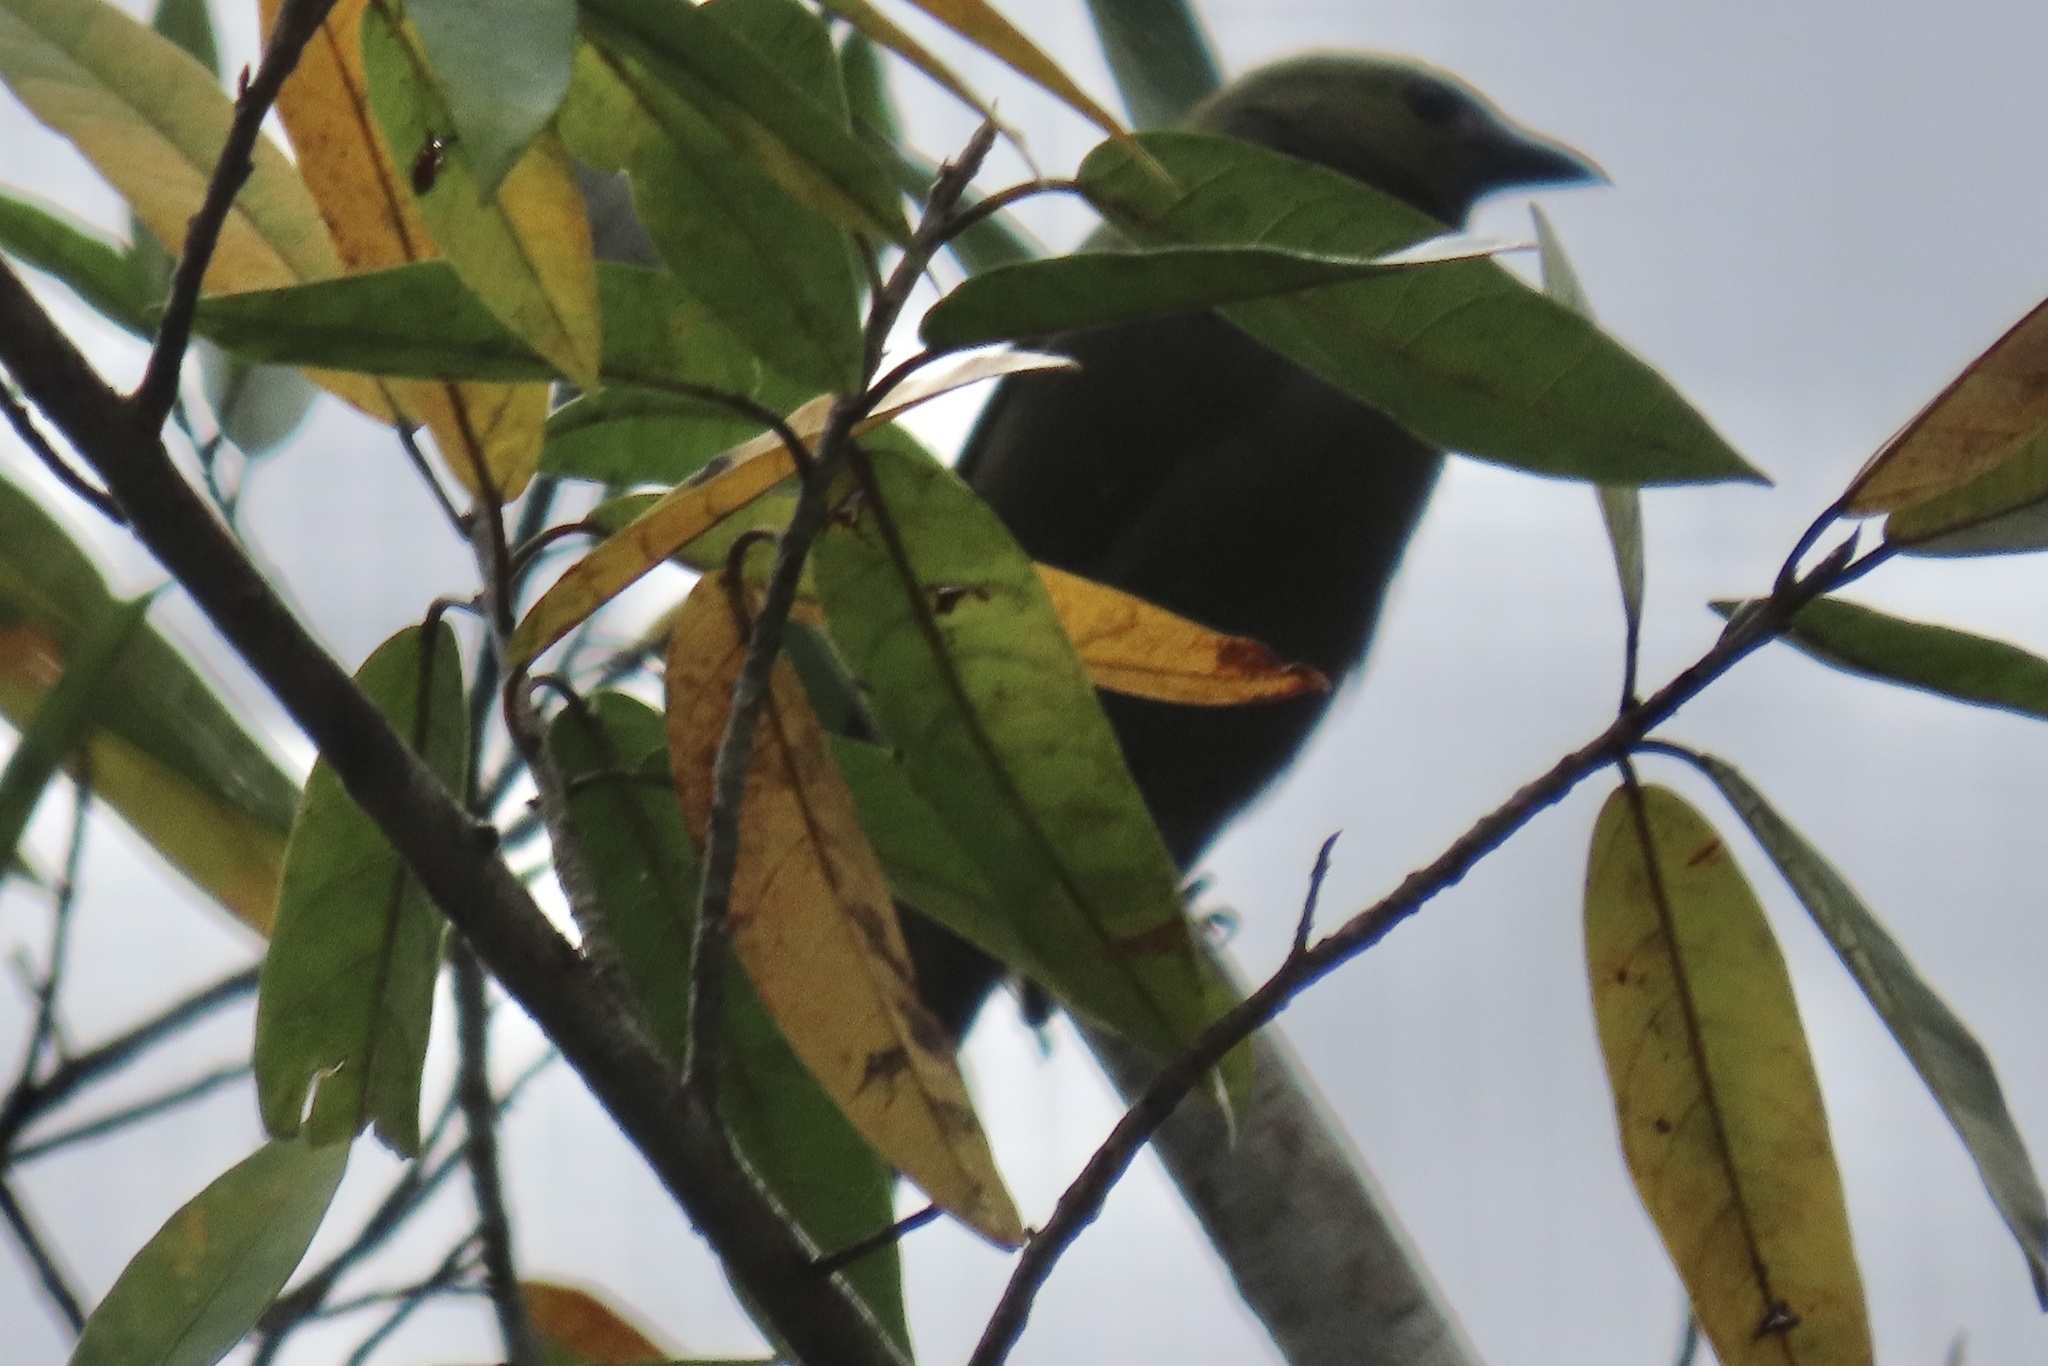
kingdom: Animalia
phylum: Chordata
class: Aves
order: Passeriformes
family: Thraupidae
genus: Thraupis
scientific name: Thraupis palmarum
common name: Palm tanager
